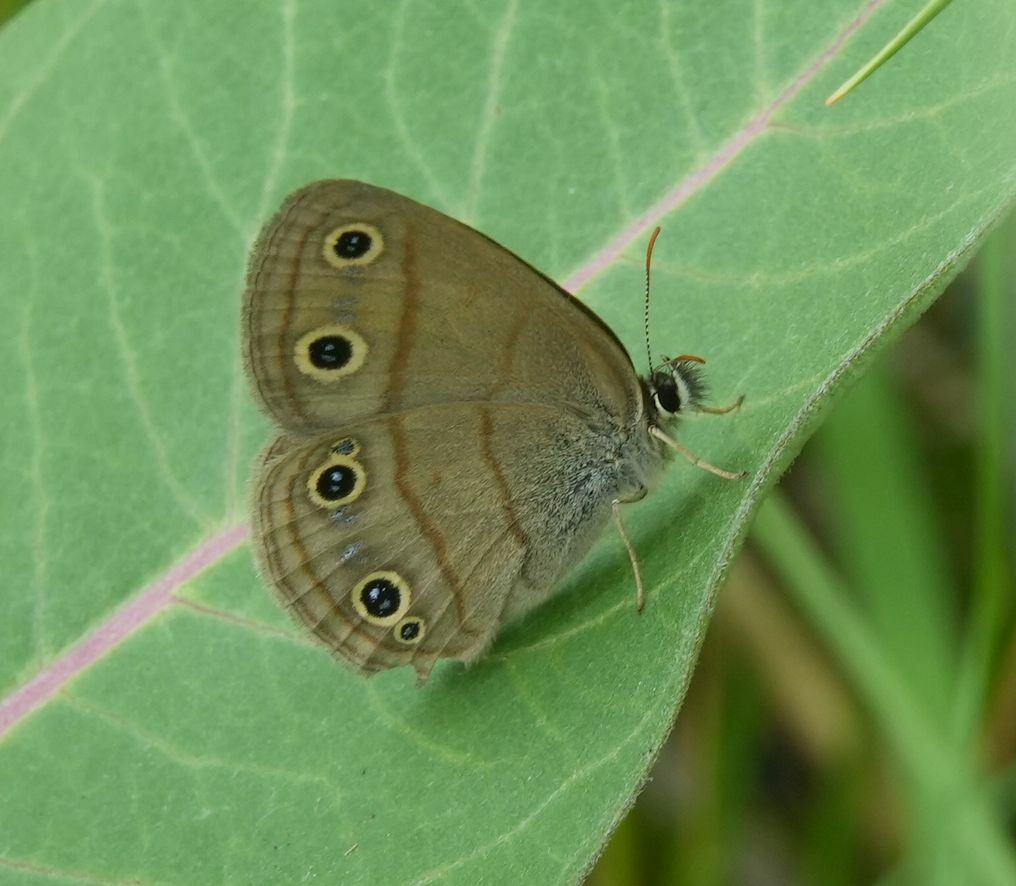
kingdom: Animalia
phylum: Arthropoda
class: Insecta
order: Lepidoptera
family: Nymphalidae
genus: Euptychia
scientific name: Euptychia cymela
